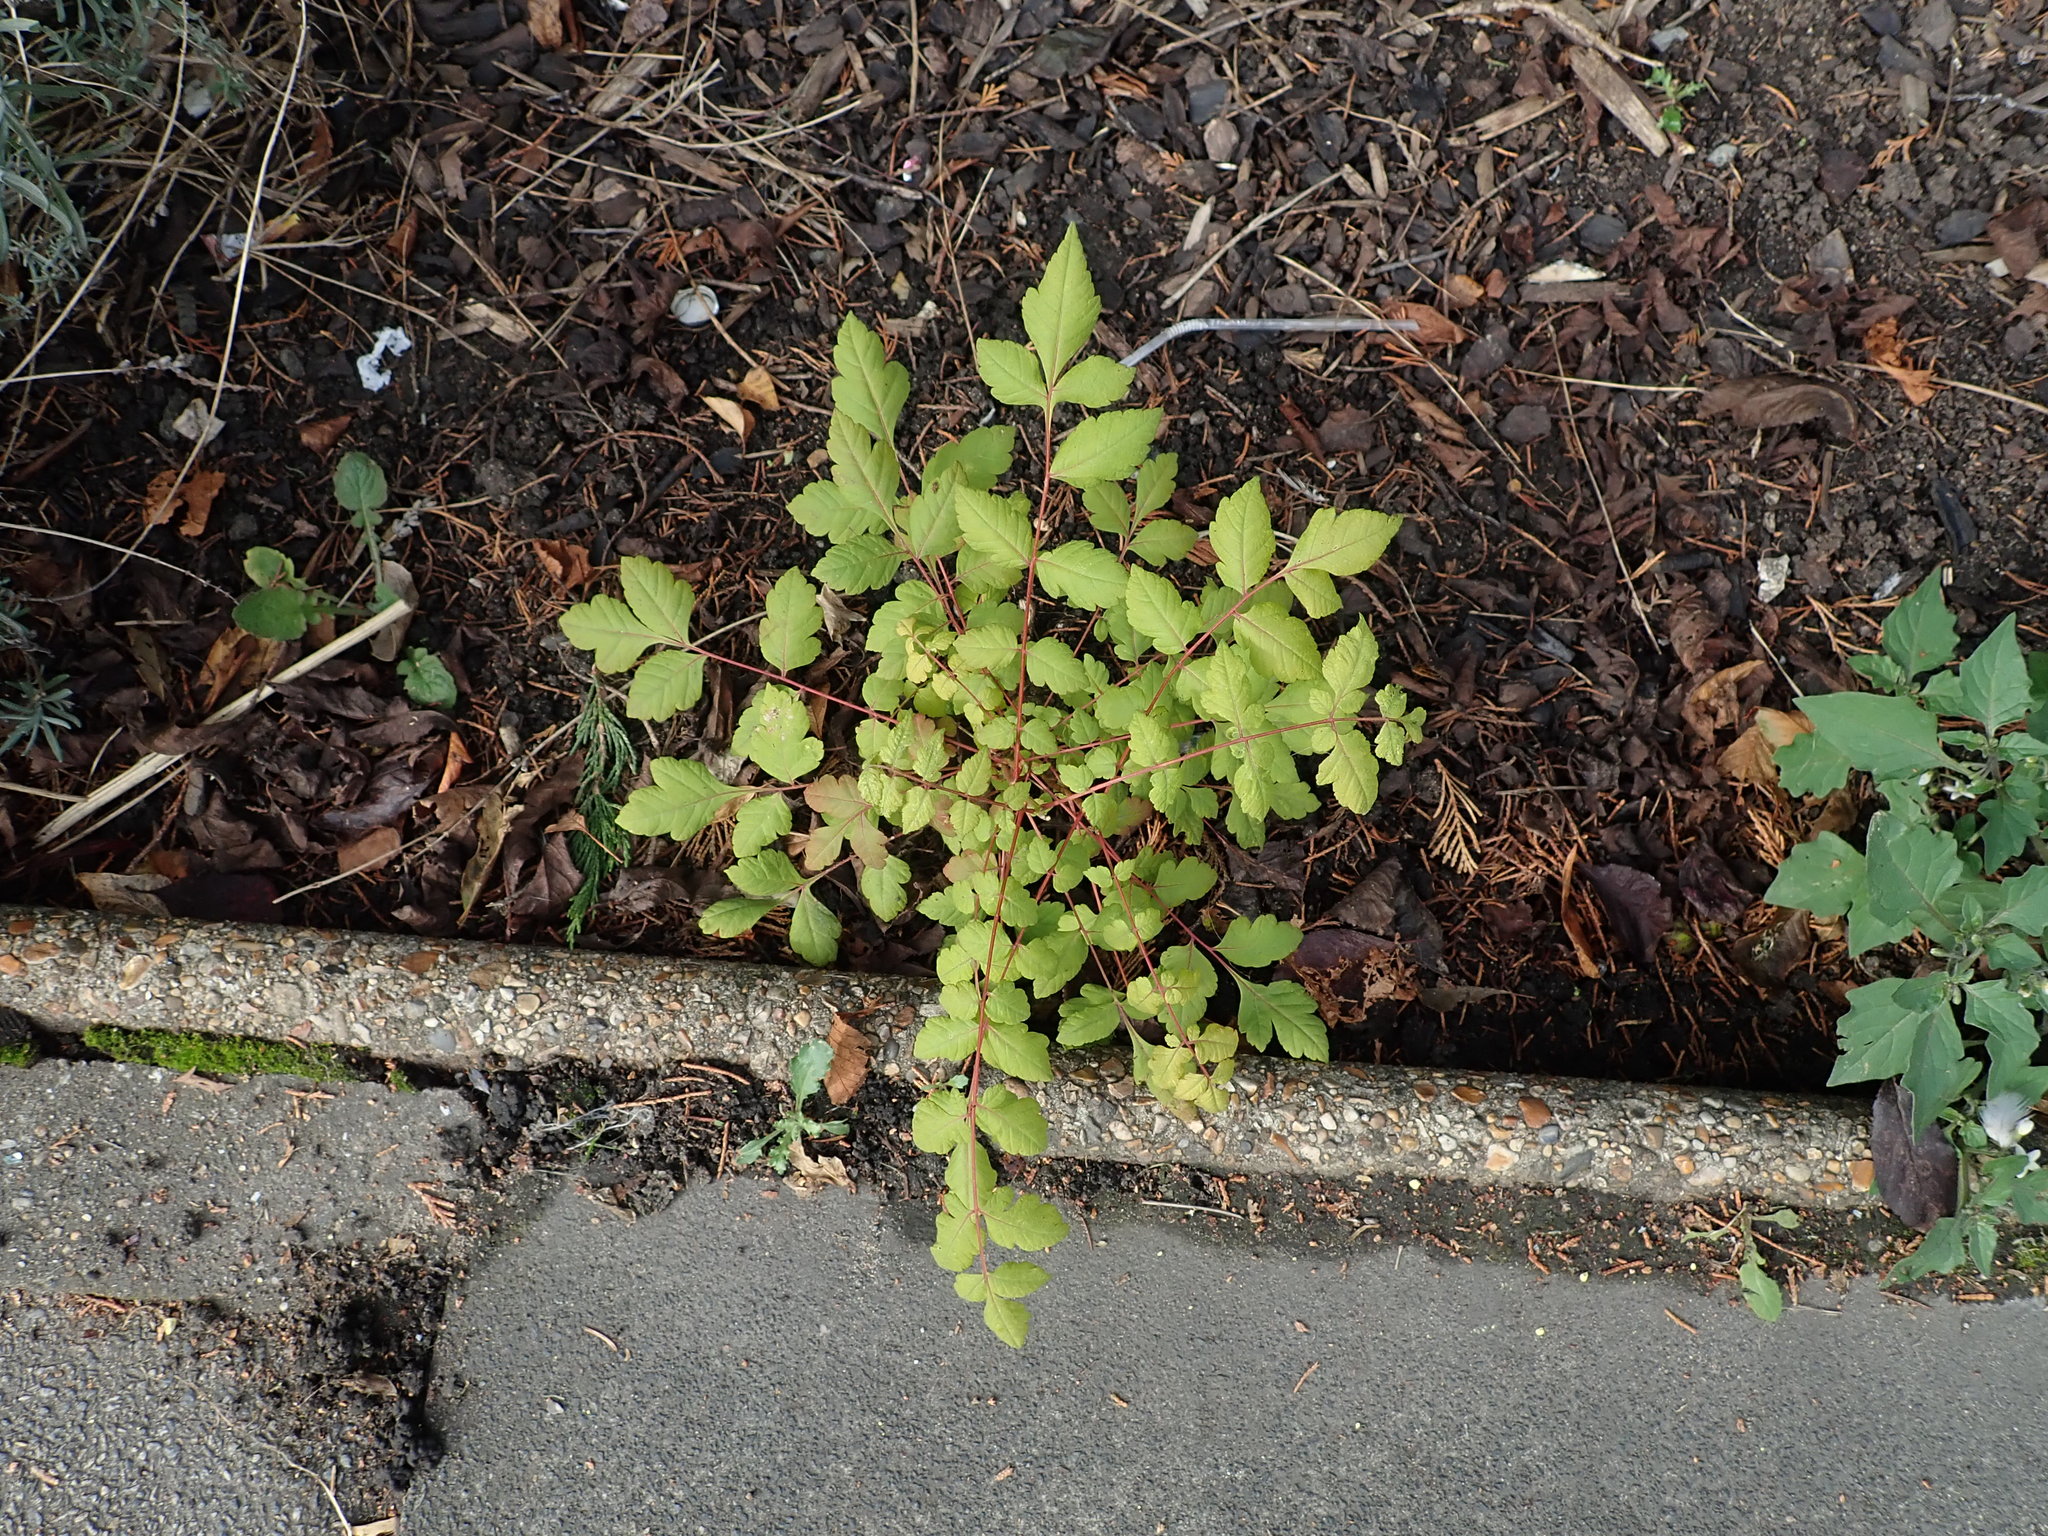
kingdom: Plantae
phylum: Tracheophyta
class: Magnoliopsida
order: Sapindales
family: Sapindaceae
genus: Koelreuteria
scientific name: Koelreuteria paniculata
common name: Pride-of-india
